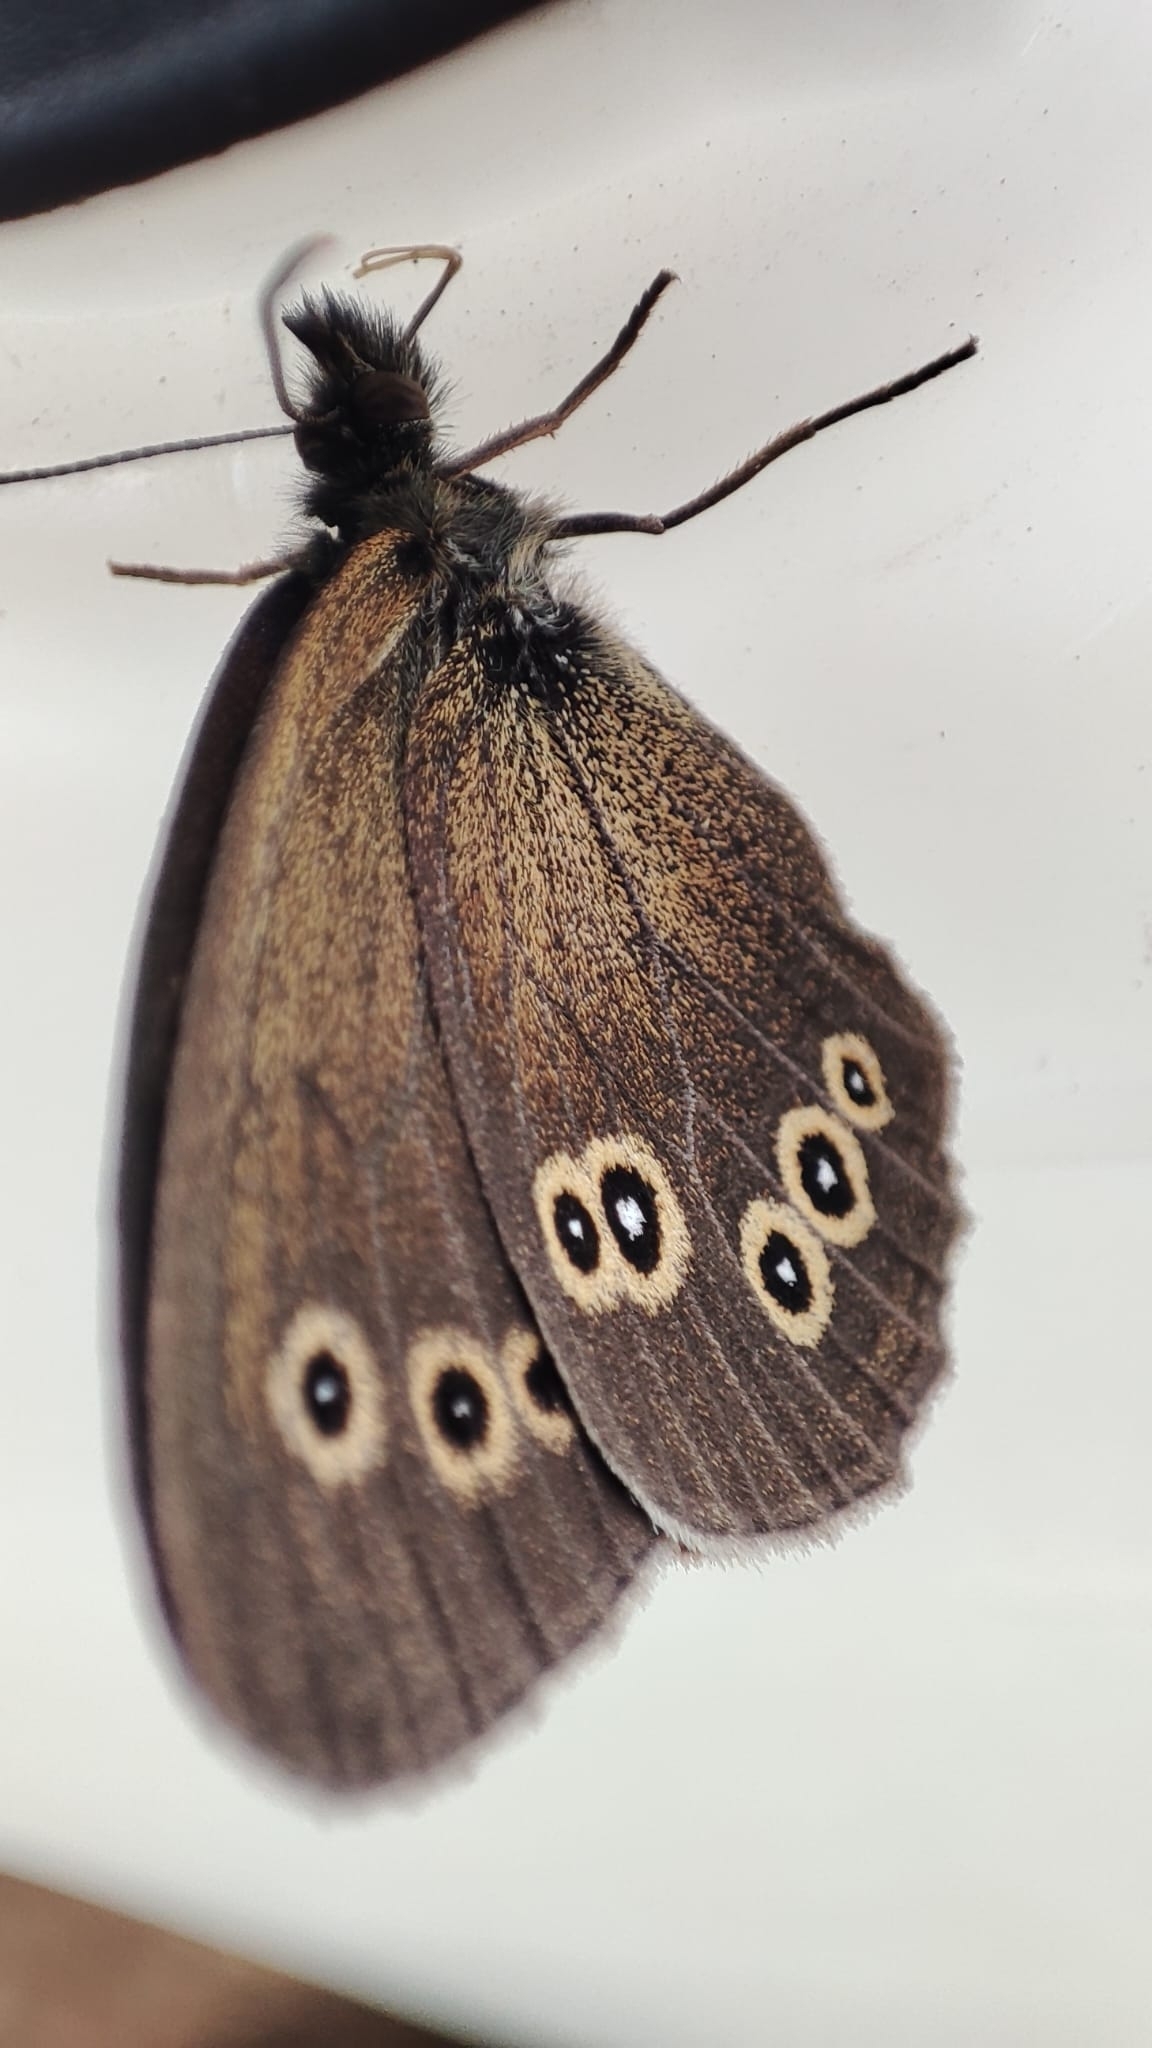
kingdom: Animalia
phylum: Arthropoda
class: Insecta
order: Lepidoptera
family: Nymphalidae
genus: Aphantopus
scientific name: Aphantopus hyperantus
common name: Ringlet
